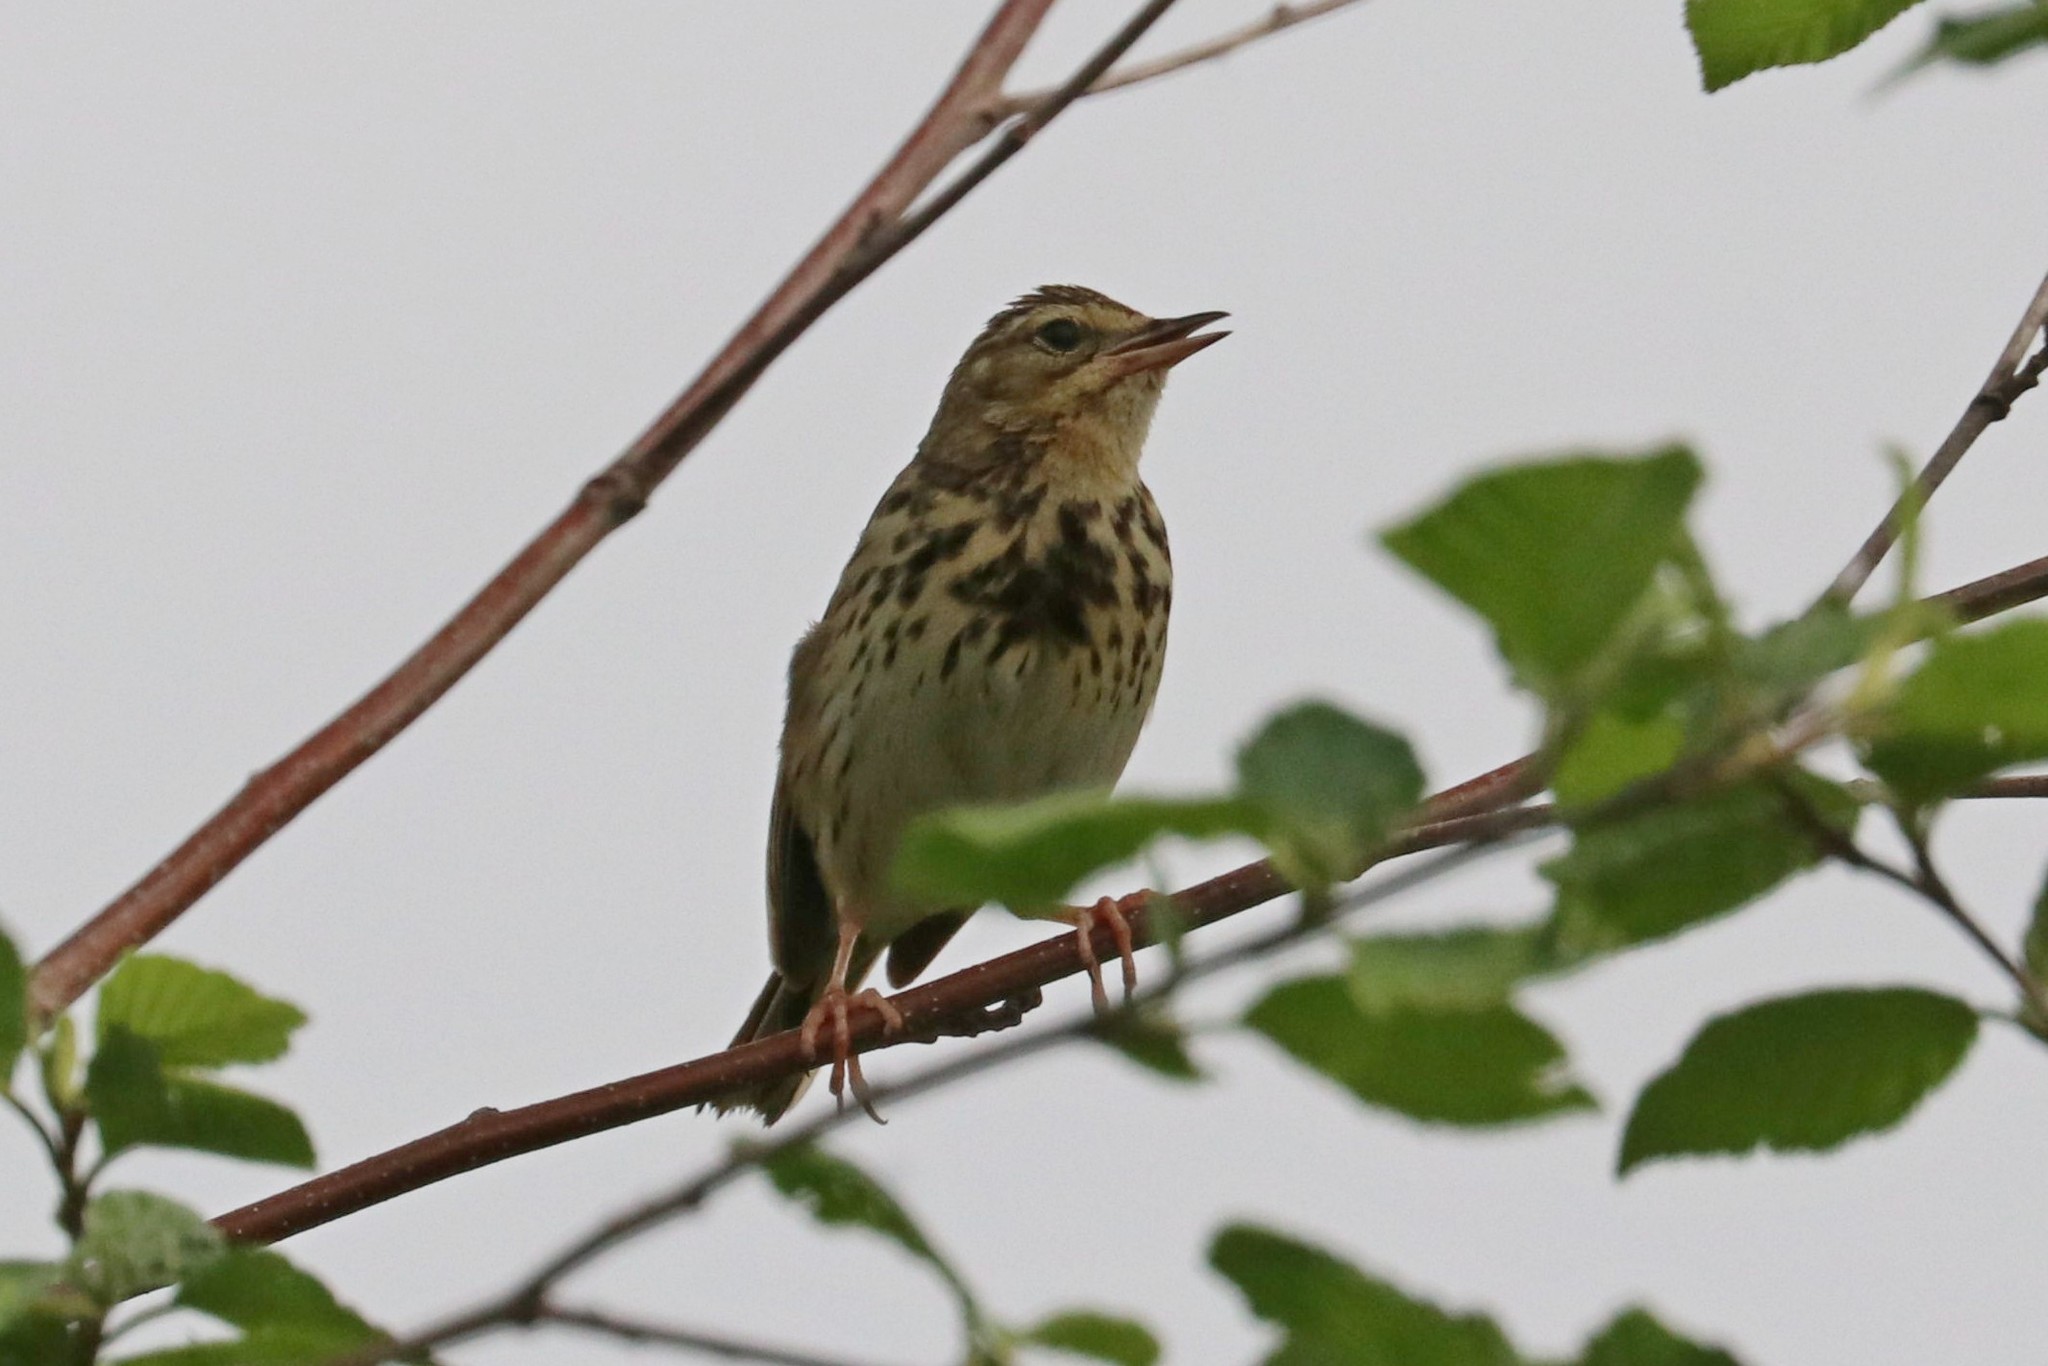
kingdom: Animalia
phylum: Chordata
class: Aves
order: Passeriformes
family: Motacillidae
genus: Anthus
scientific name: Anthus trivialis
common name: Tree pipit
